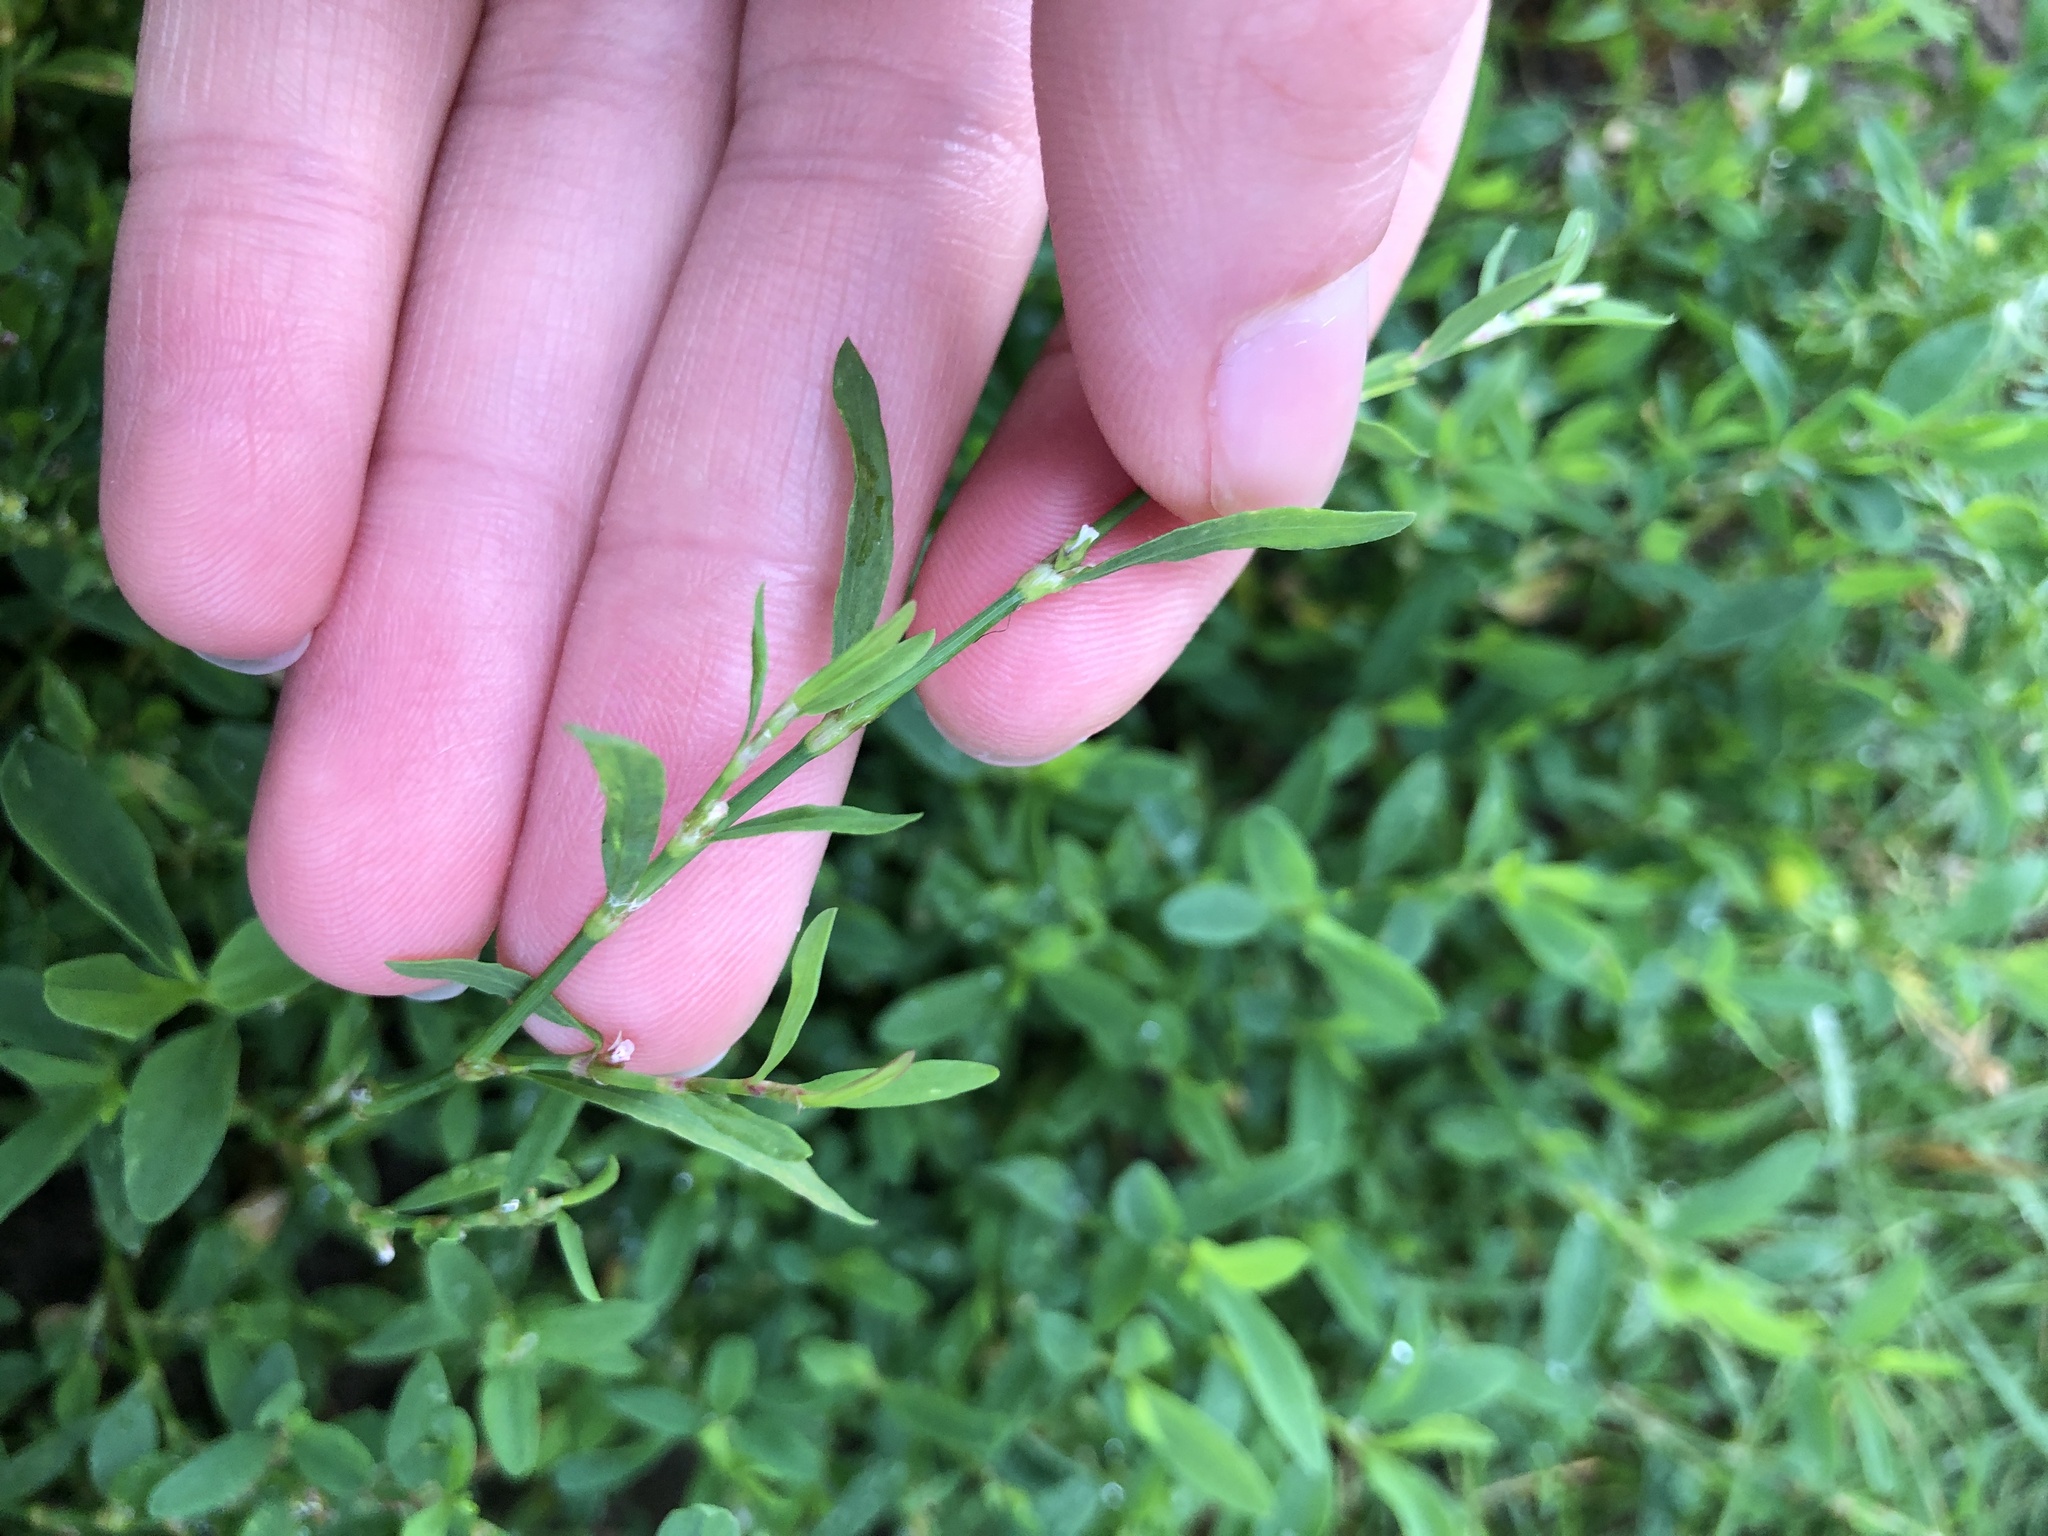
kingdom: Plantae
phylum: Tracheophyta
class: Magnoliopsida
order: Caryophyllales
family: Polygonaceae
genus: Polygonum
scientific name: Polygonum aviculare
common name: Prostrate knotweed
